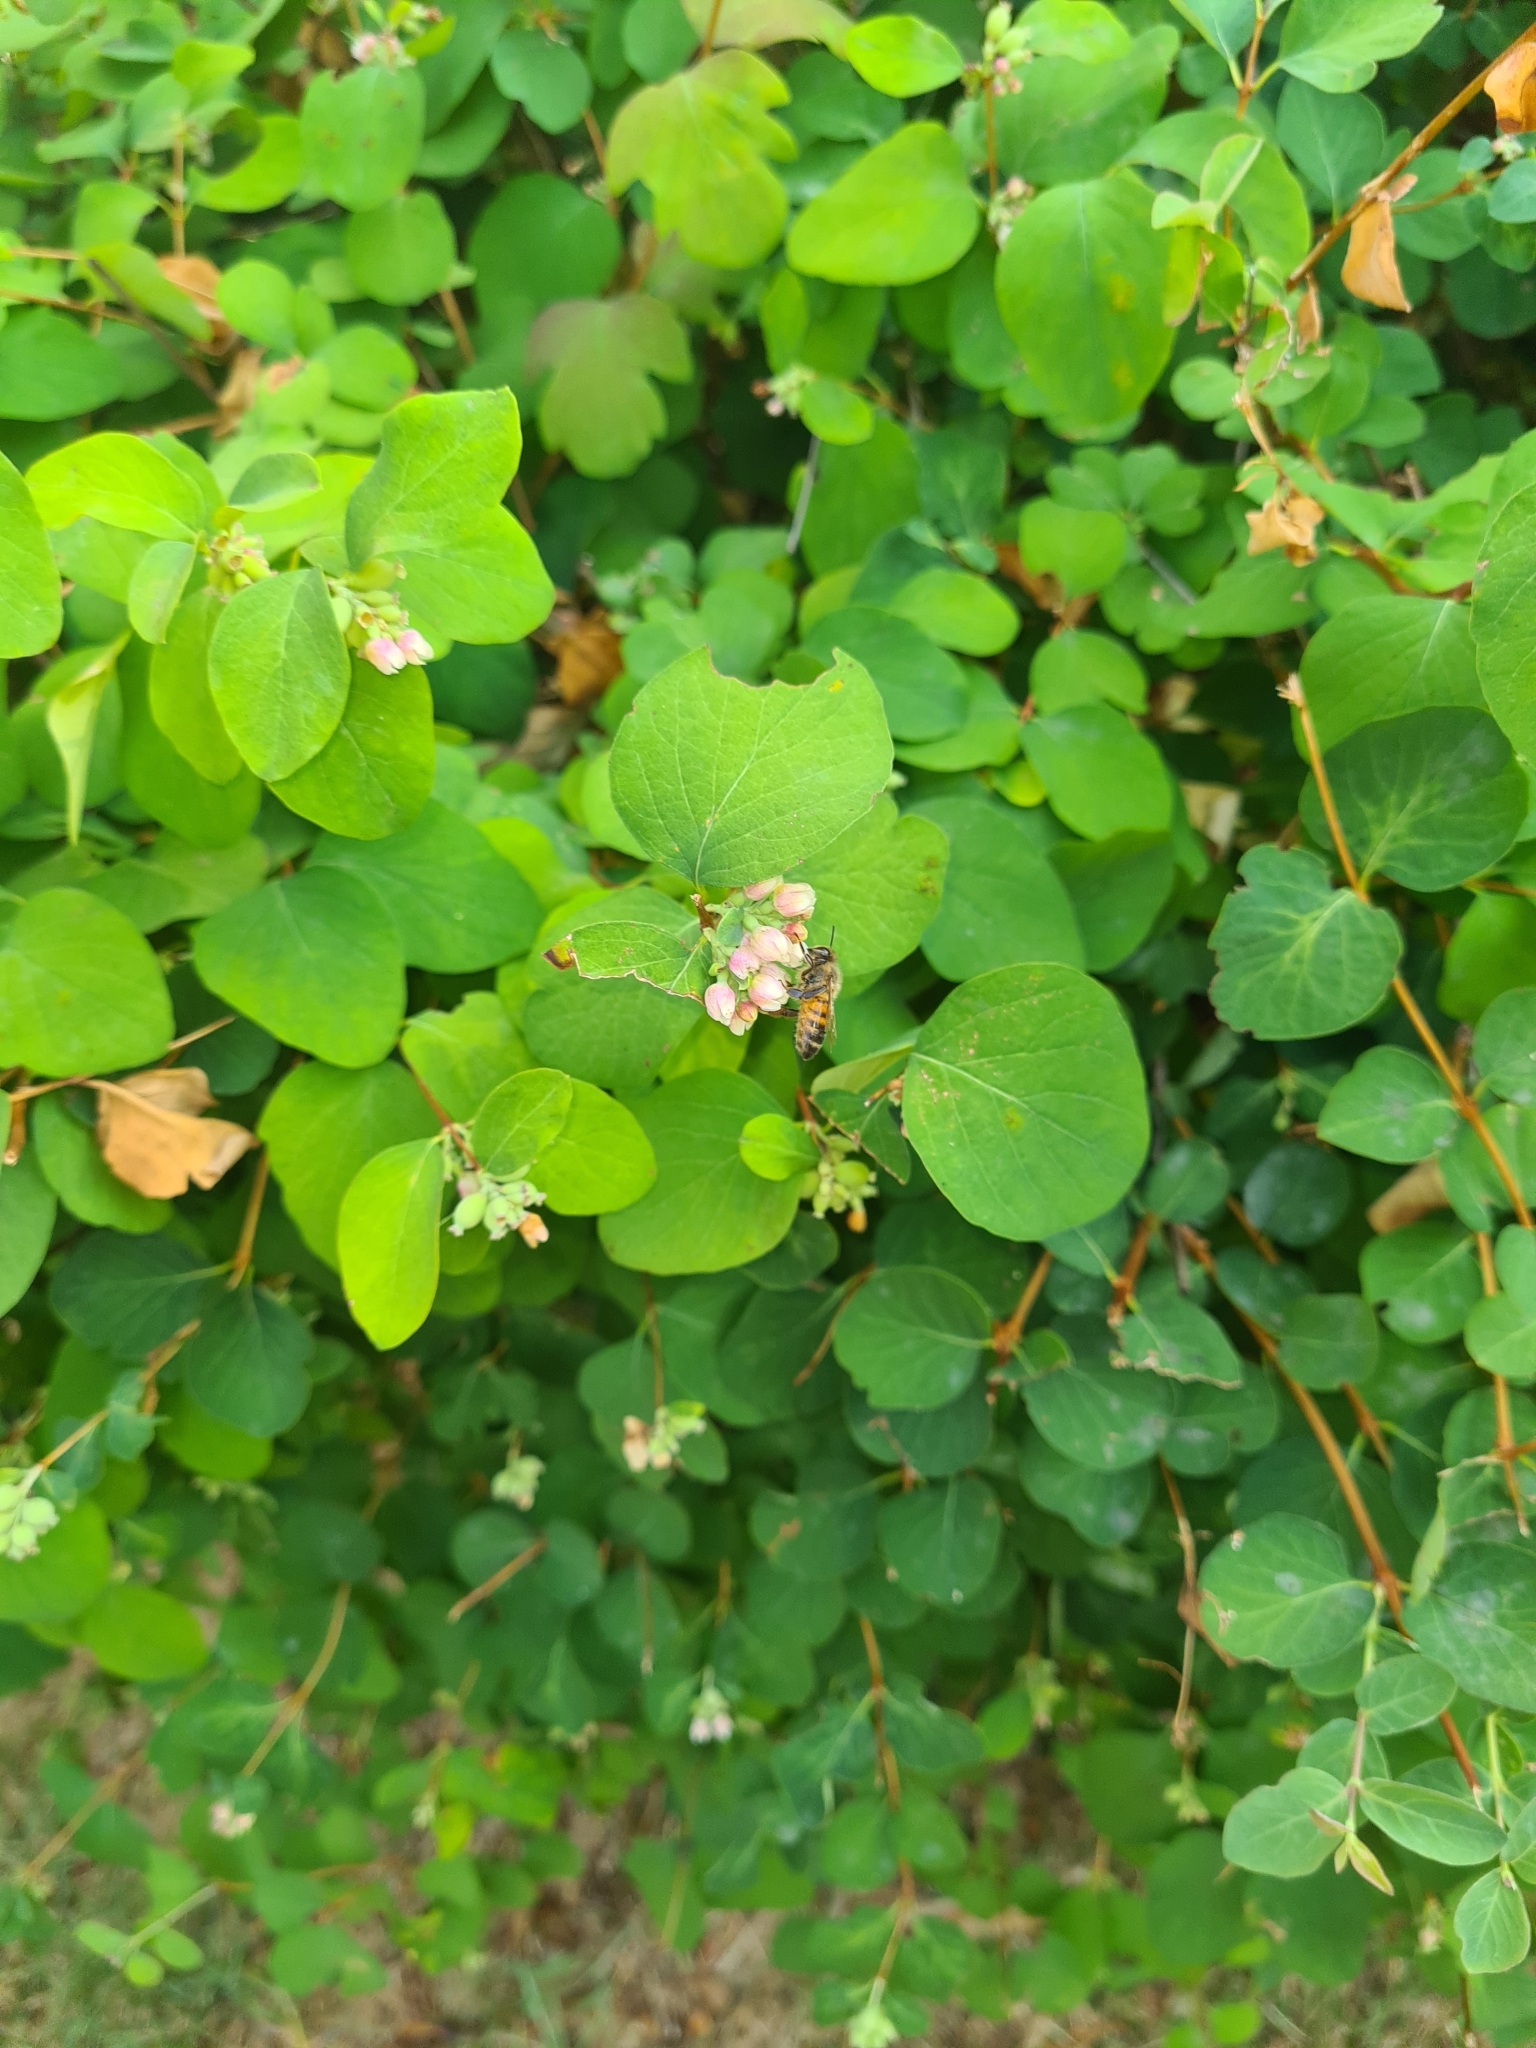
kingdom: Animalia
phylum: Arthropoda
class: Insecta
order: Hymenoptera
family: Apidae
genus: Apis
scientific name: Apis mellifera
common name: Honey bee
